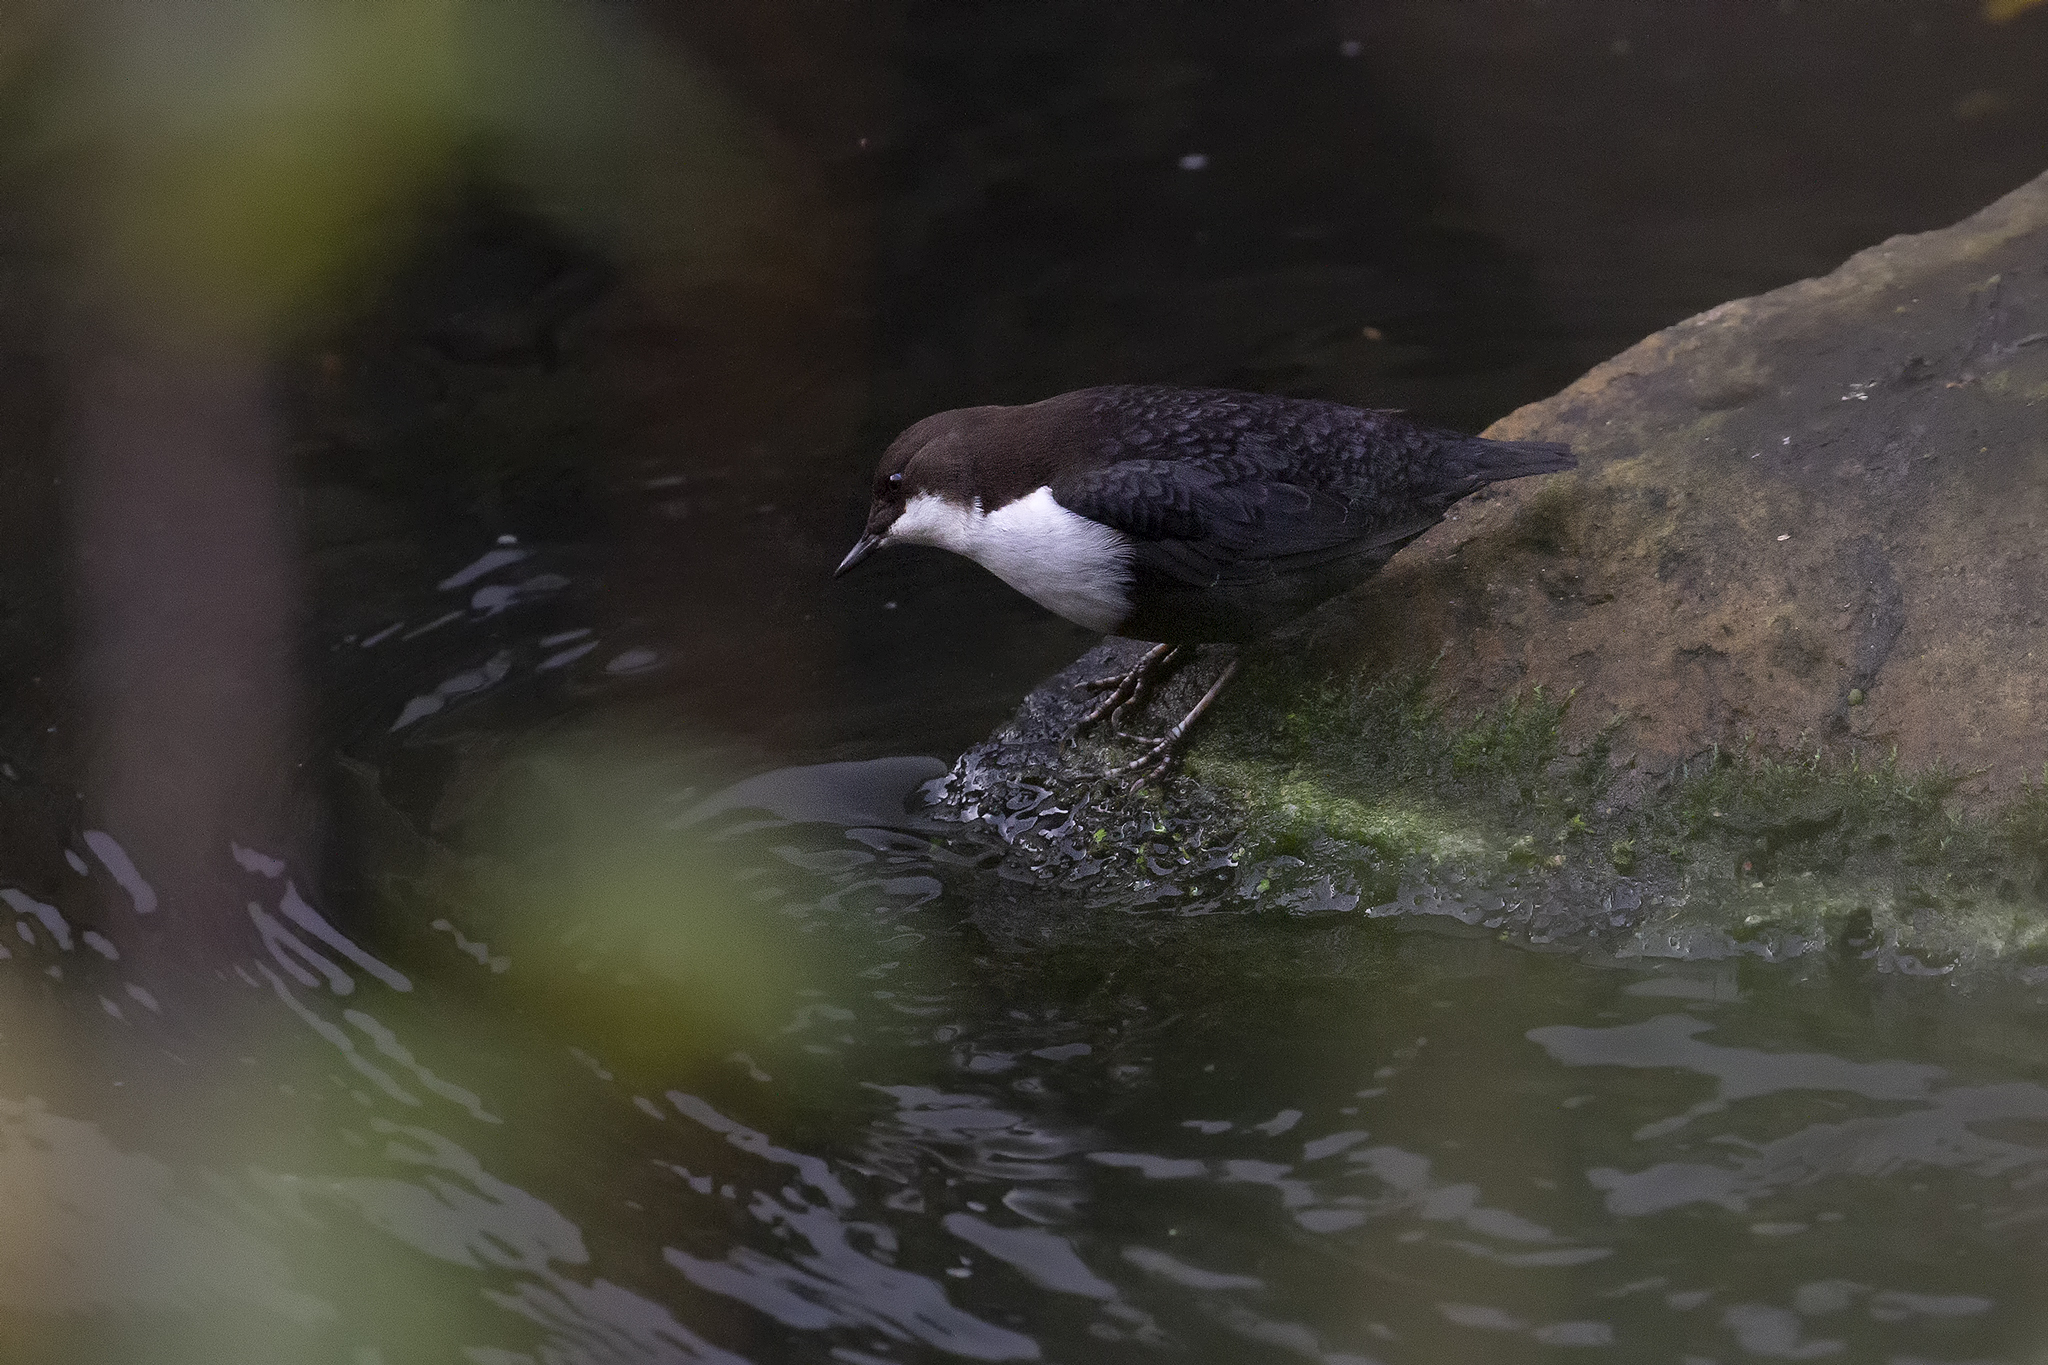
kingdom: Animalia
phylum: Chordata
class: Aves
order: Passeriformes
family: Cinclidae
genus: Cinclus
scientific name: Cinclus cinclus
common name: White-throated dipper
